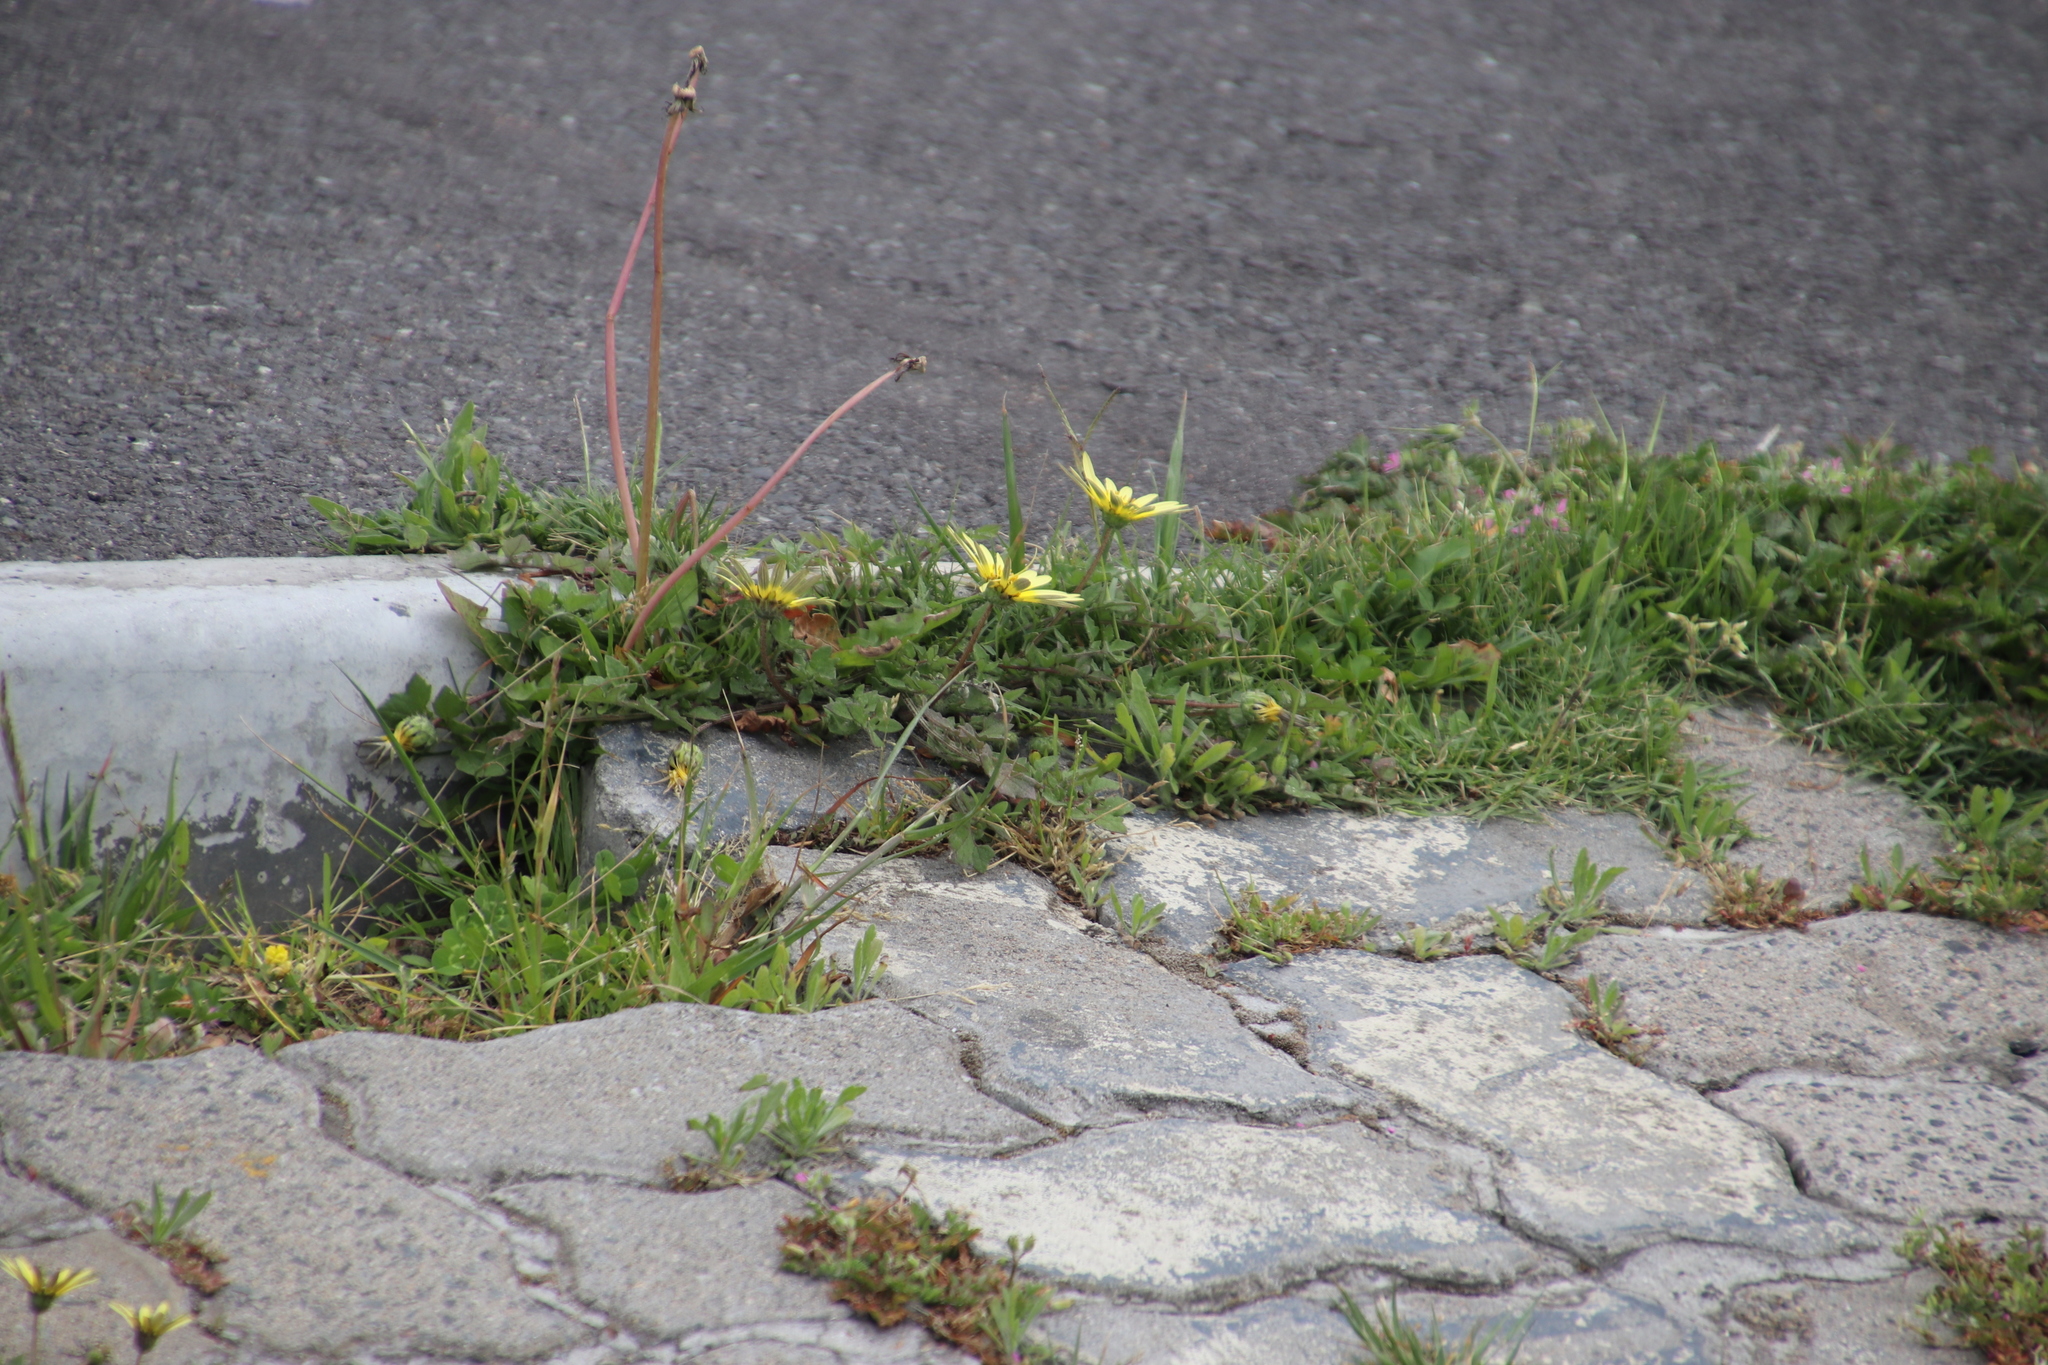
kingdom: Plantae
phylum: Tracheophyta
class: Magnoliopsida
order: Asterales
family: Asteraceae
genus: Arctotheca
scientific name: Arctotheca calendula
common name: Capeweed
